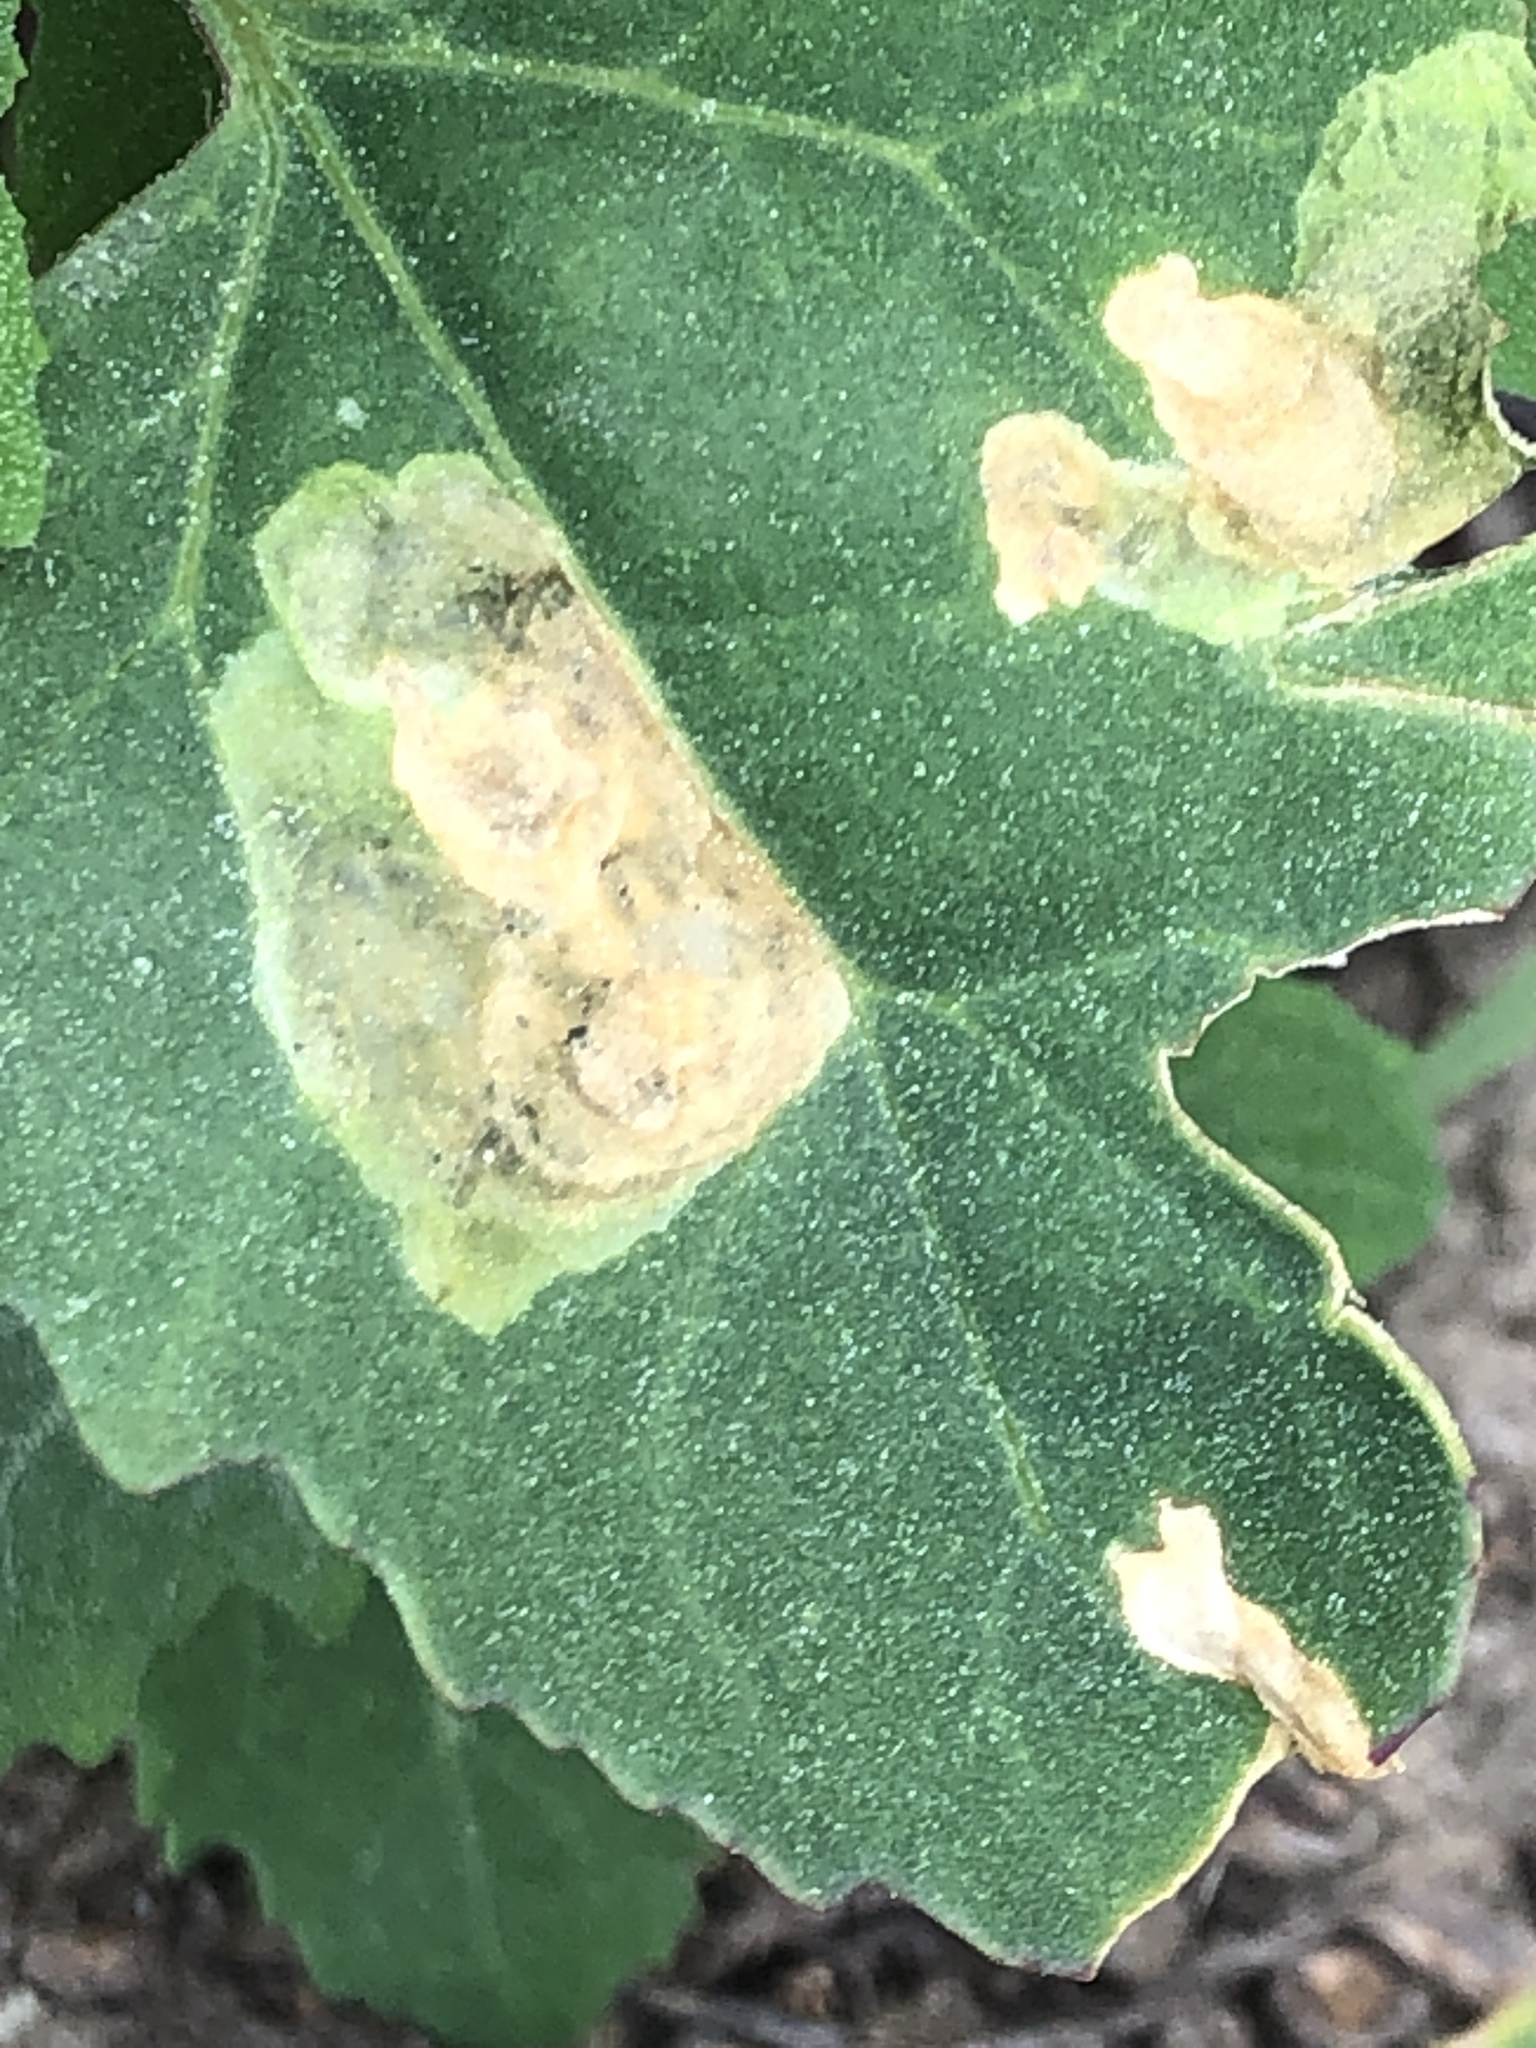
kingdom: Animalia
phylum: Arthropoda
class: Insecta
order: Diptera
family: Agromyzidae
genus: Amauromyza
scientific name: Amauromyza flavifrons
